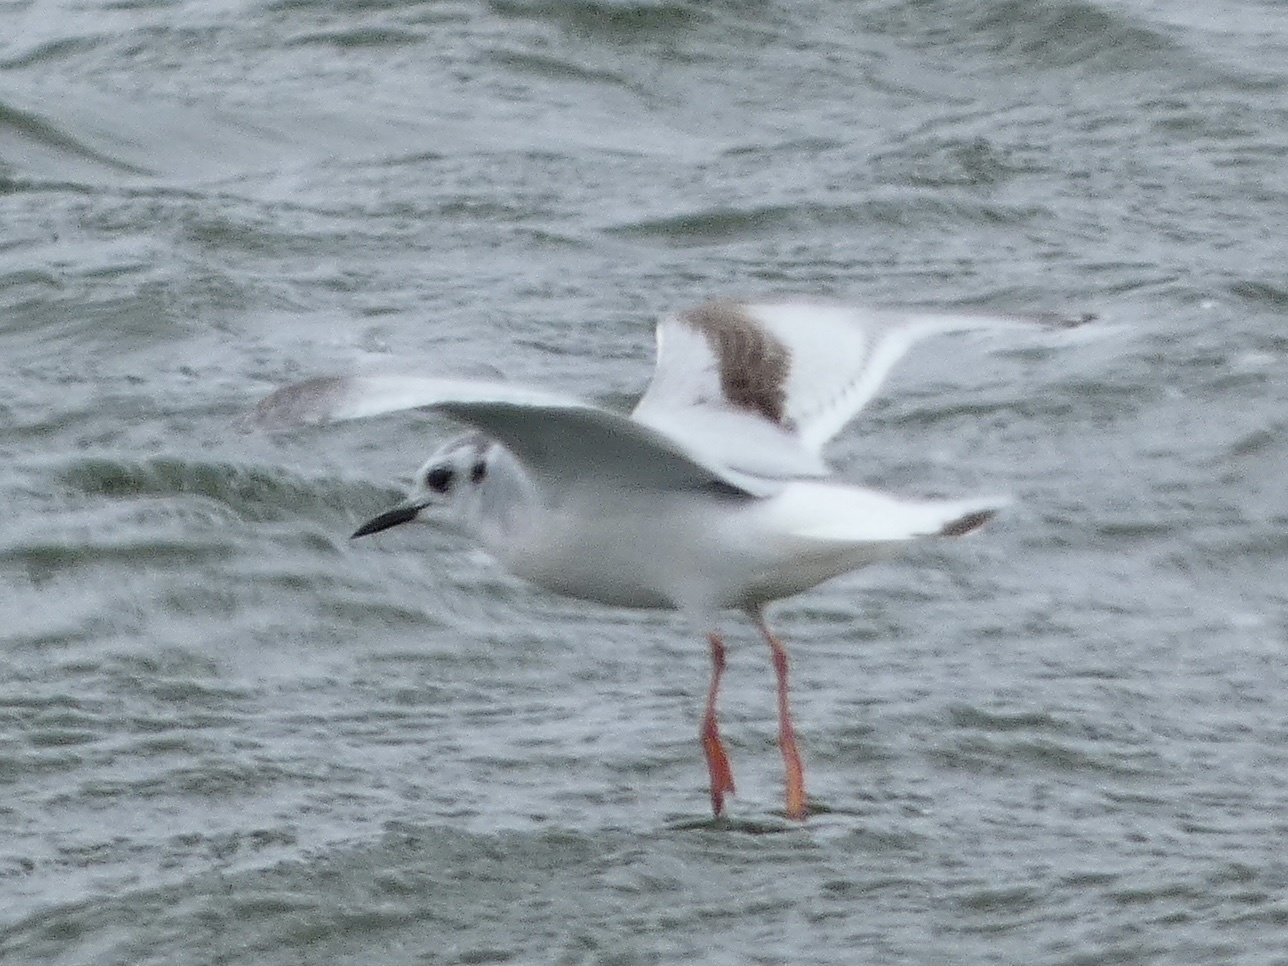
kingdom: Animalia
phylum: Chordata
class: Aves
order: Charadriiformes
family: Laridae
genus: Hydrocoloeus
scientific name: Hydrocoloeus minutus
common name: Little gull
